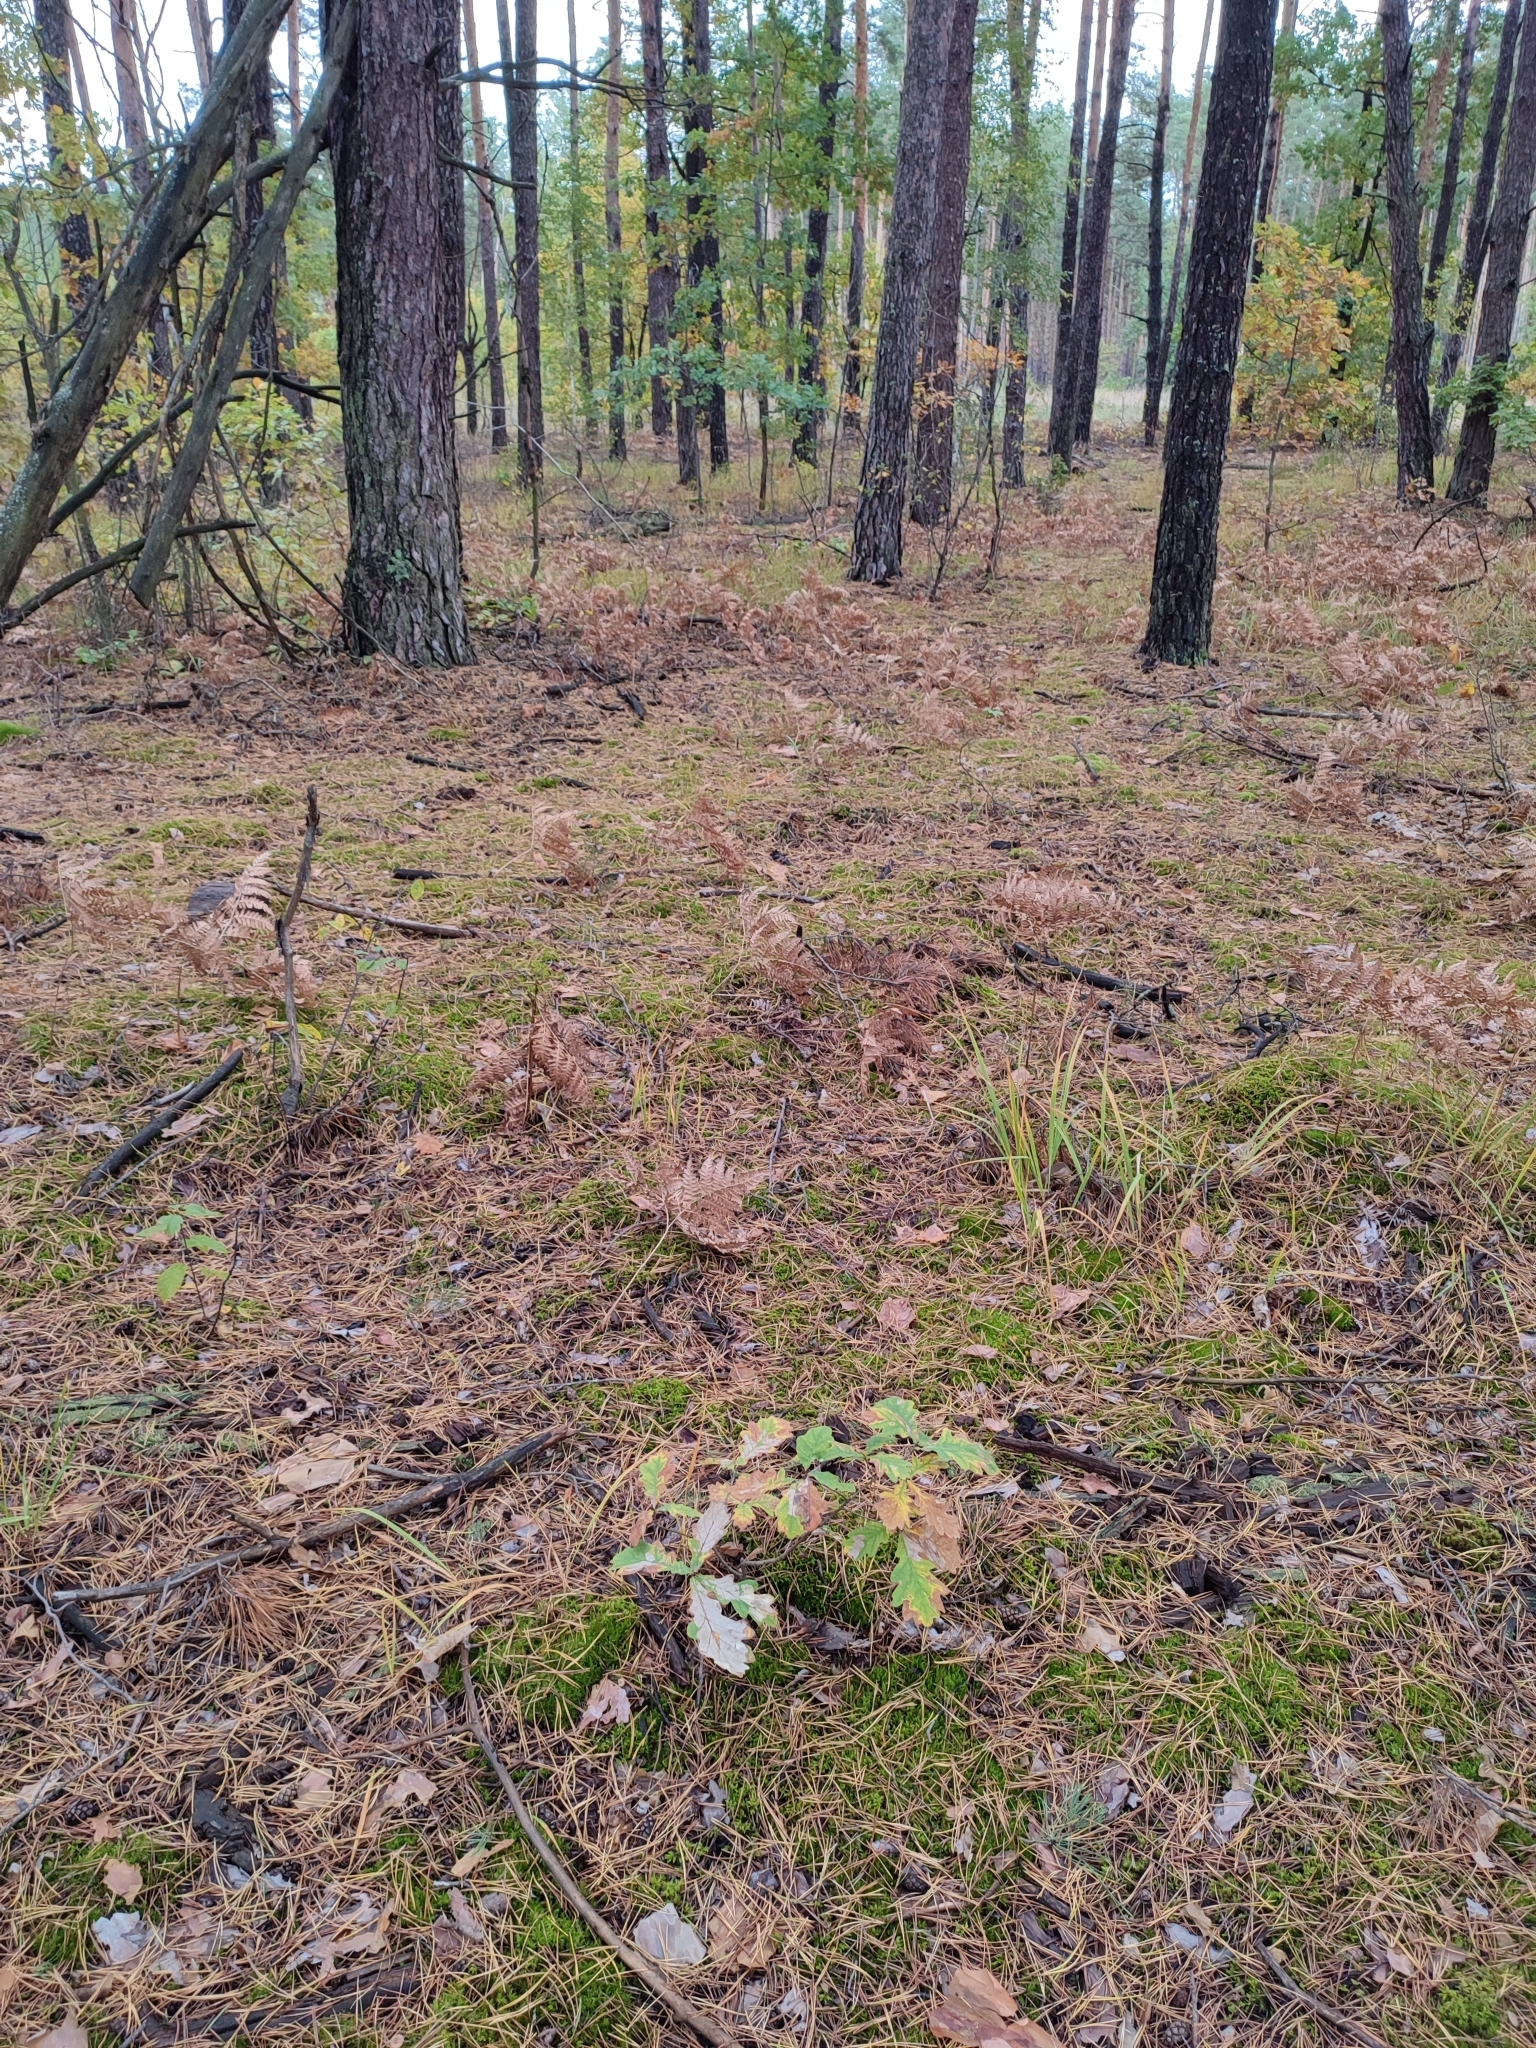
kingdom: Plantae
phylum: Tracheophyta
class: Magnoliopsida
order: Fagales
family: Fagaceae
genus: Quercus
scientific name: Quercus robur
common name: Pedunculate oak
